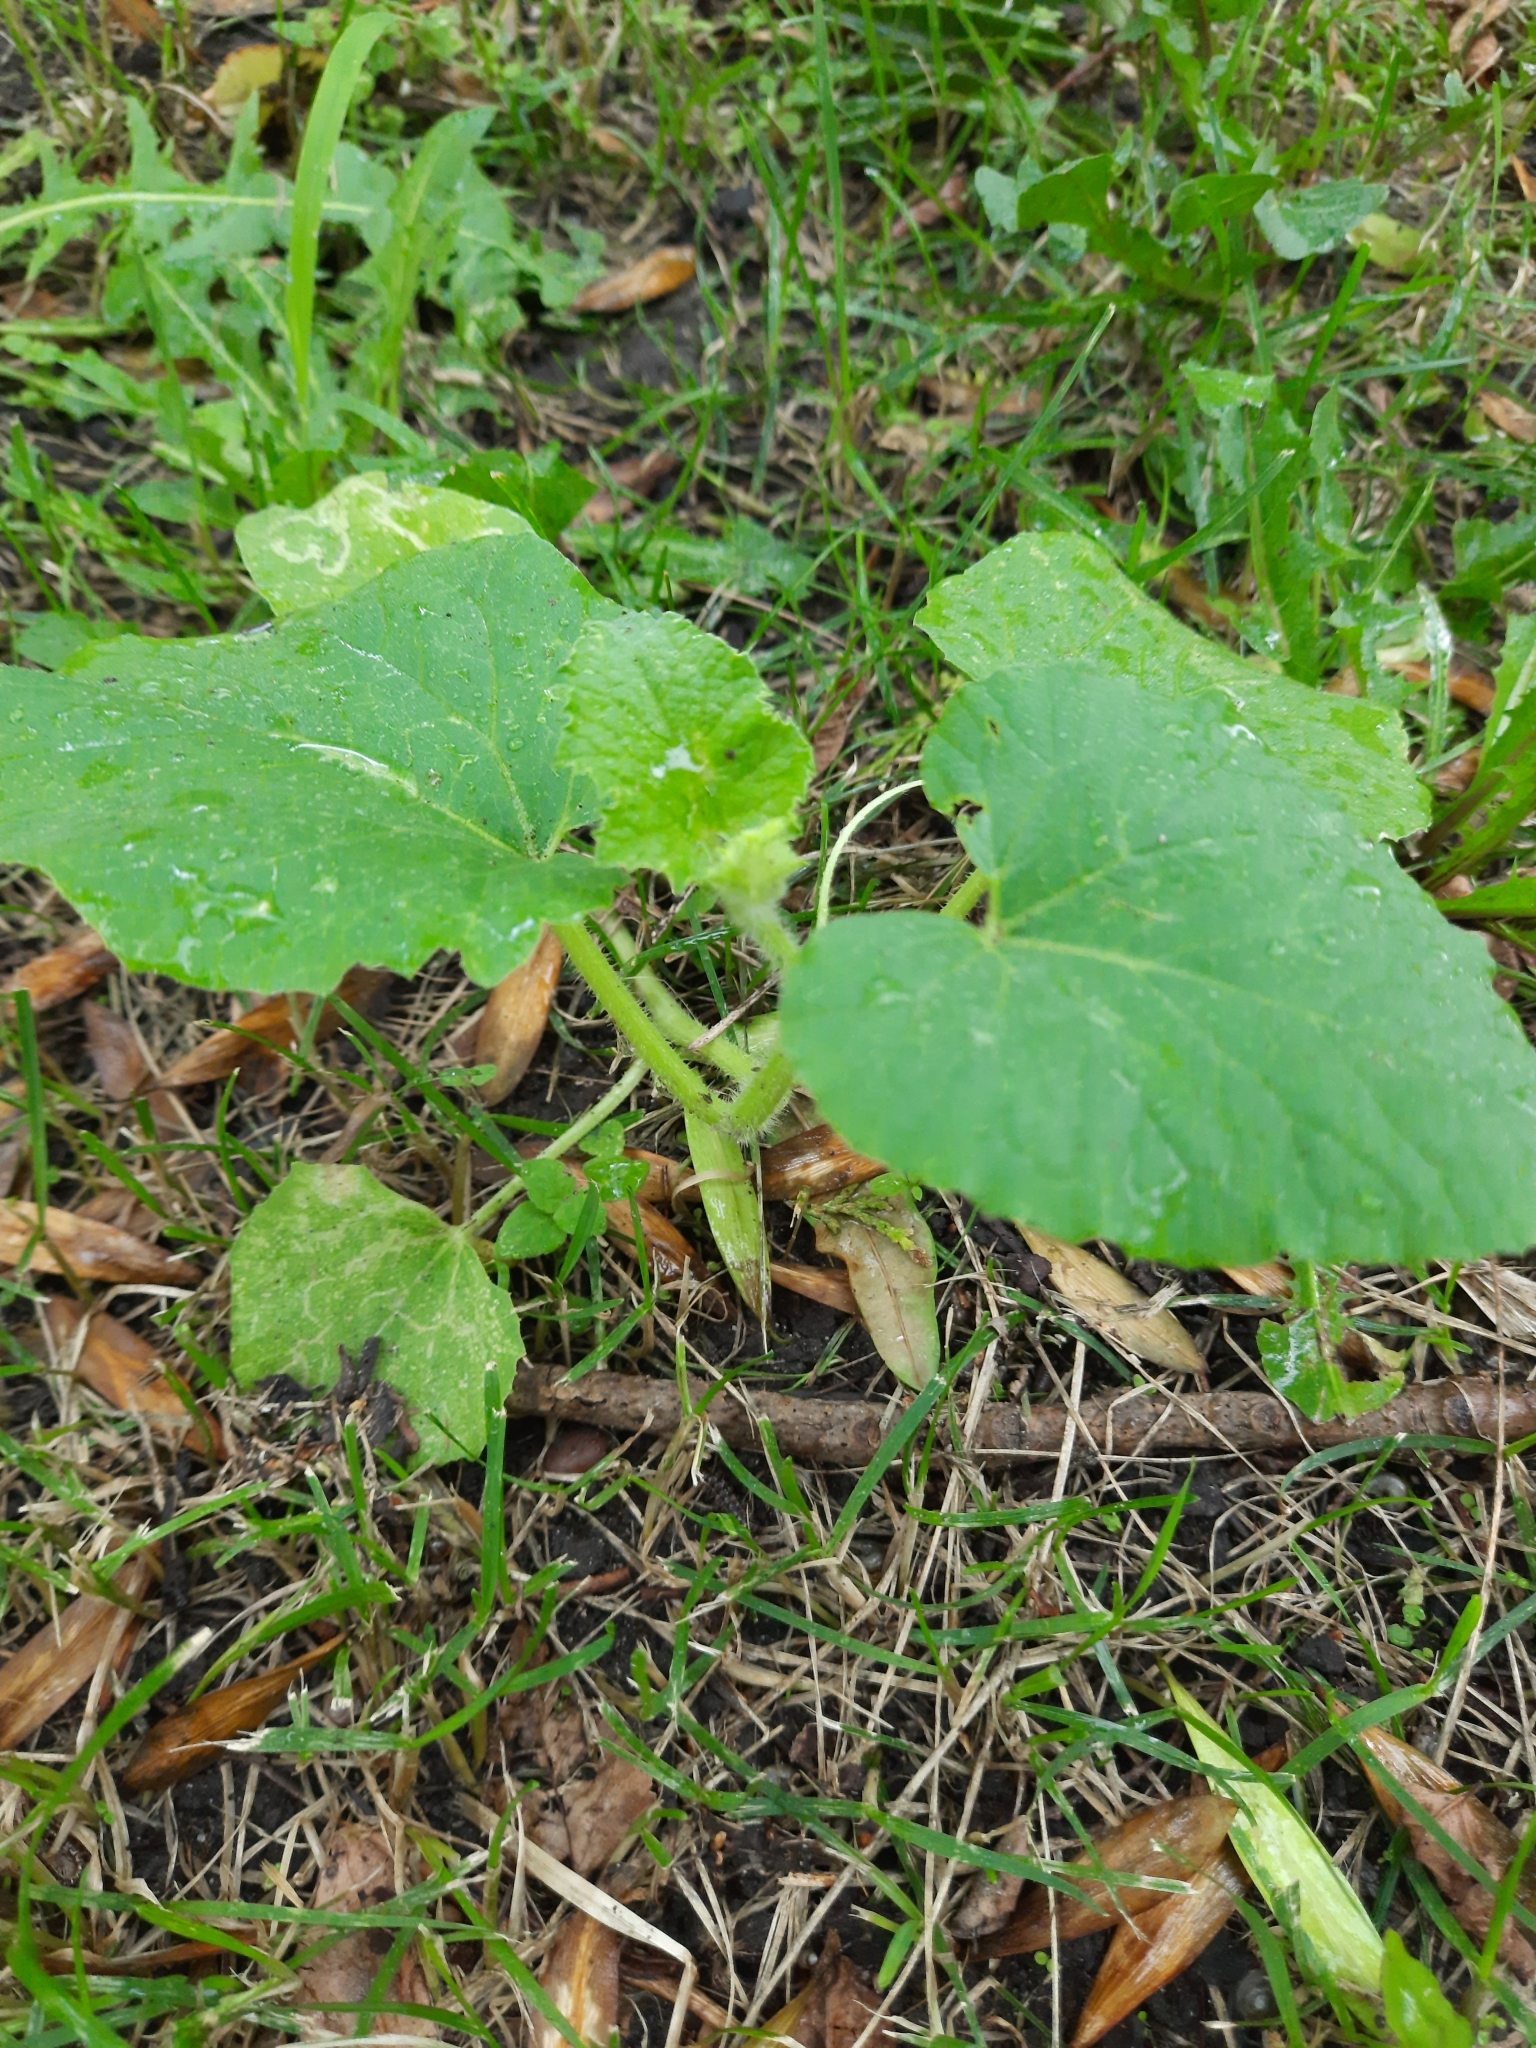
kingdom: Plantae
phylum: Tracheophyta
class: Magnoliopsida
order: Cucurbitales
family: Cucurbitaceae
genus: Cucurbita
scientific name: Cucurbita maxima
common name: Pumpkin
